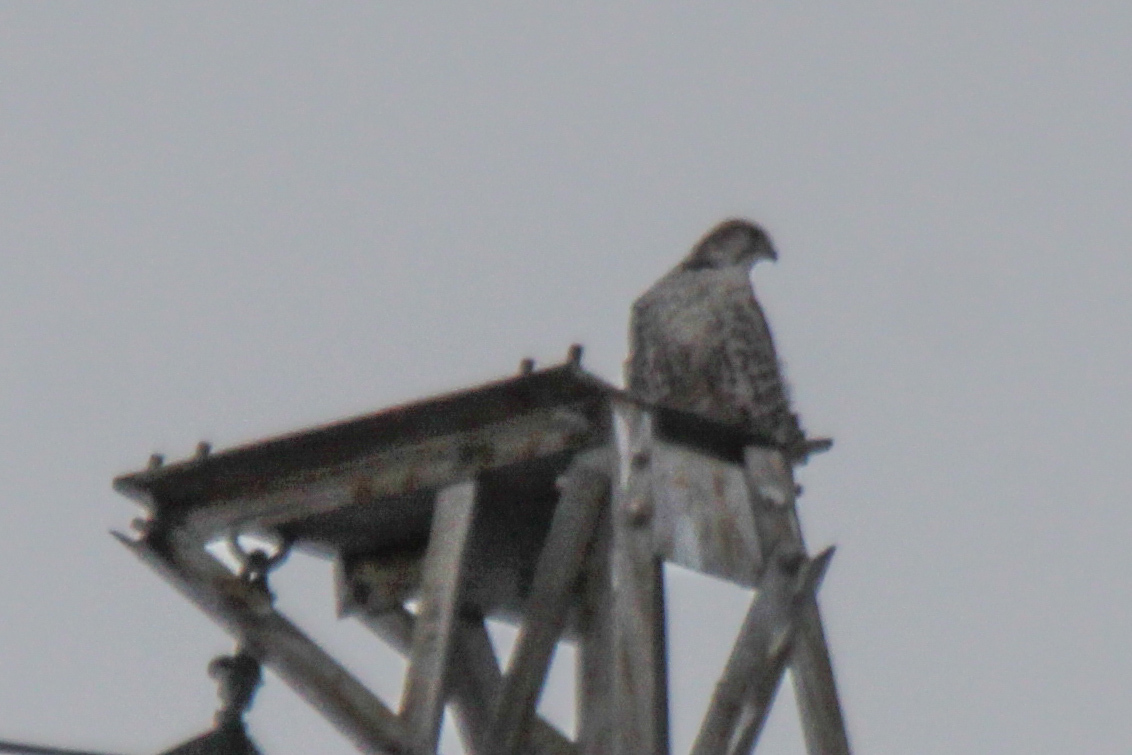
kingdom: Animalia
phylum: Chordata
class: Aves
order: Falconiformes
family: Falconidae
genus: Falco
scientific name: Falco cherrug
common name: Saker falcon
